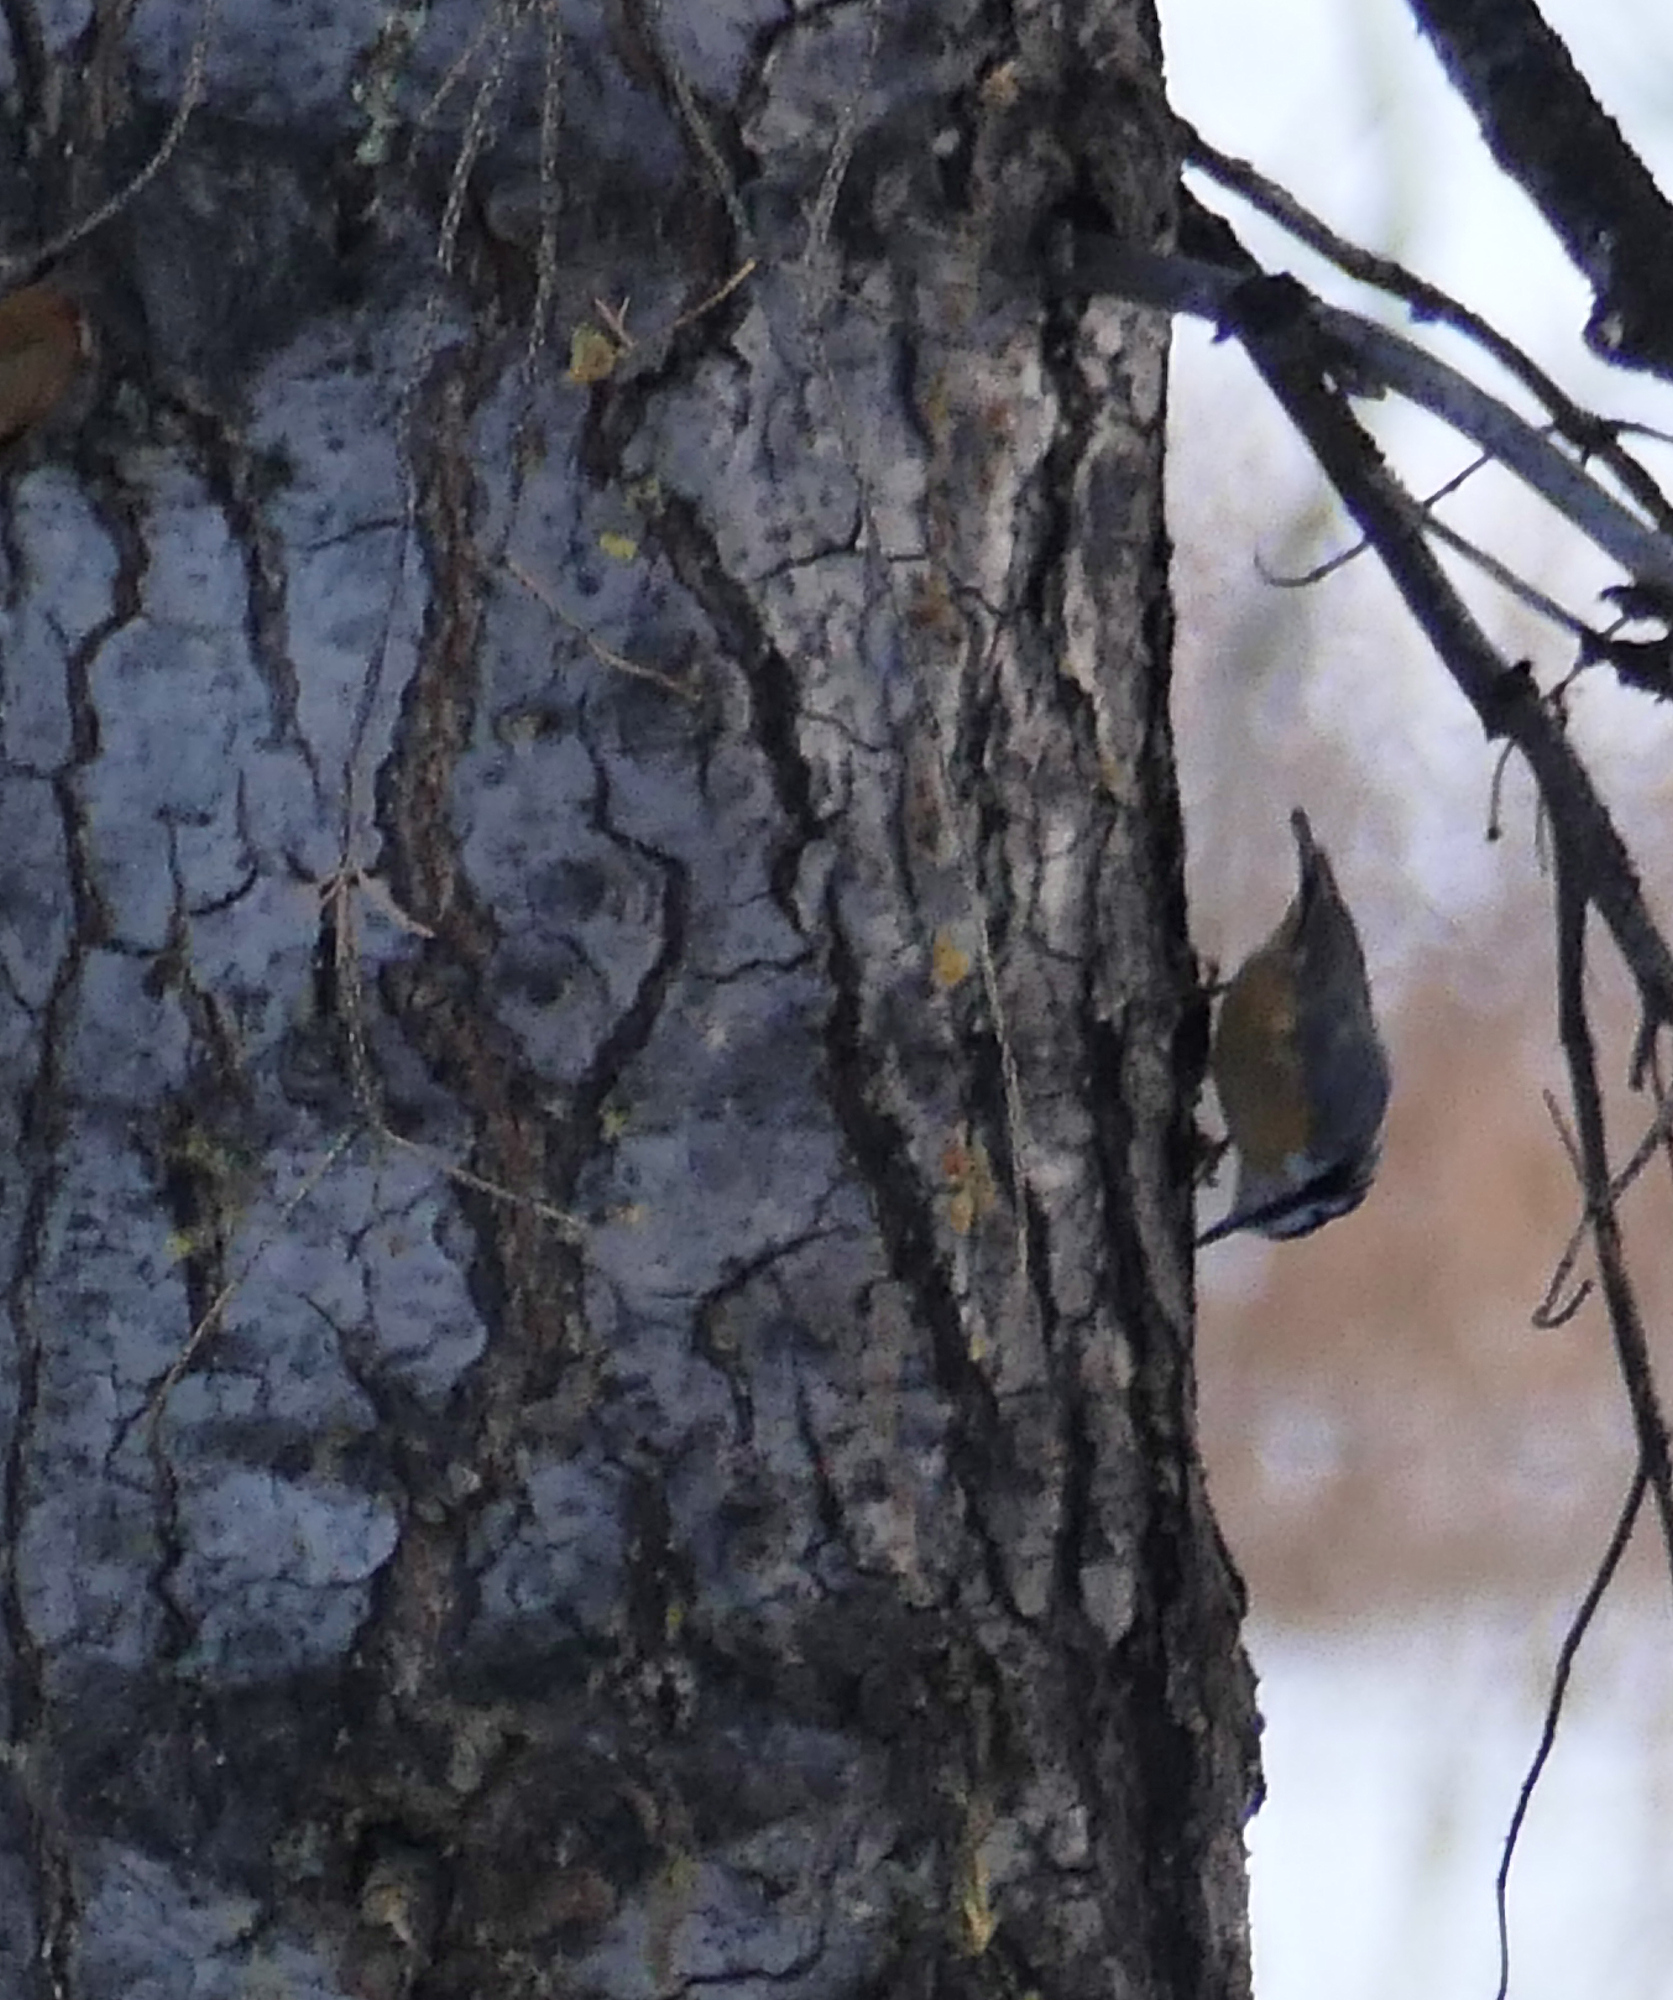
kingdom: Animalia
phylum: Chordata
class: Aves
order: Passeriformes
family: Sittidae
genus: Sitta
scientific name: Sitta canadensis
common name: Red-breasted nuthatch
